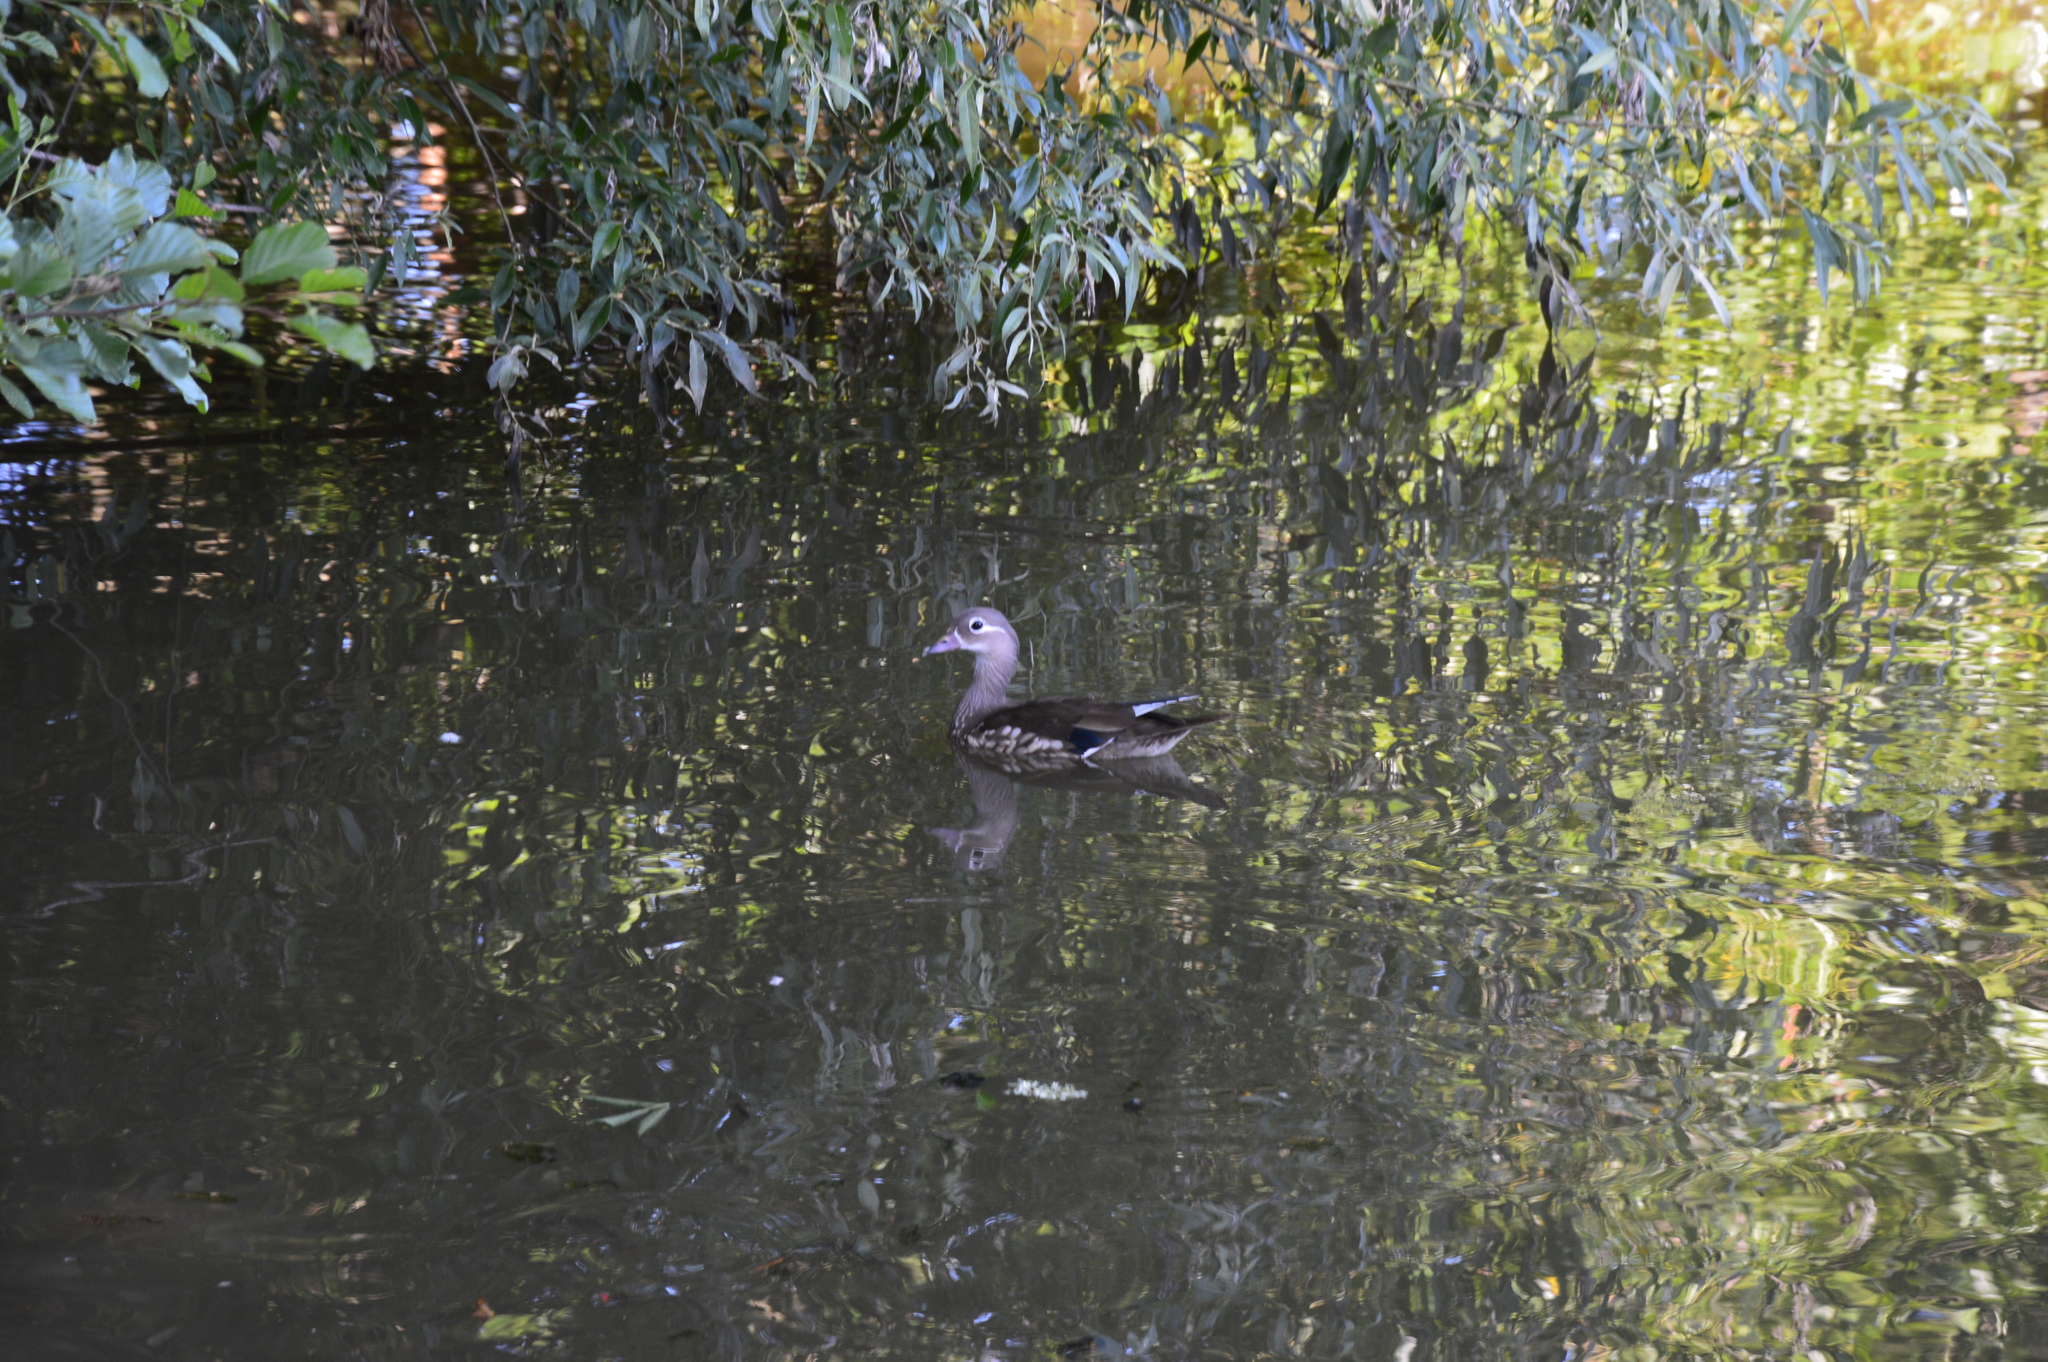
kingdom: Animalia
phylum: Chordata
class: Aves
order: Anseriformes
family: Anatidae
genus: Aix
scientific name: Aix galericulata
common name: Mandarin duck
